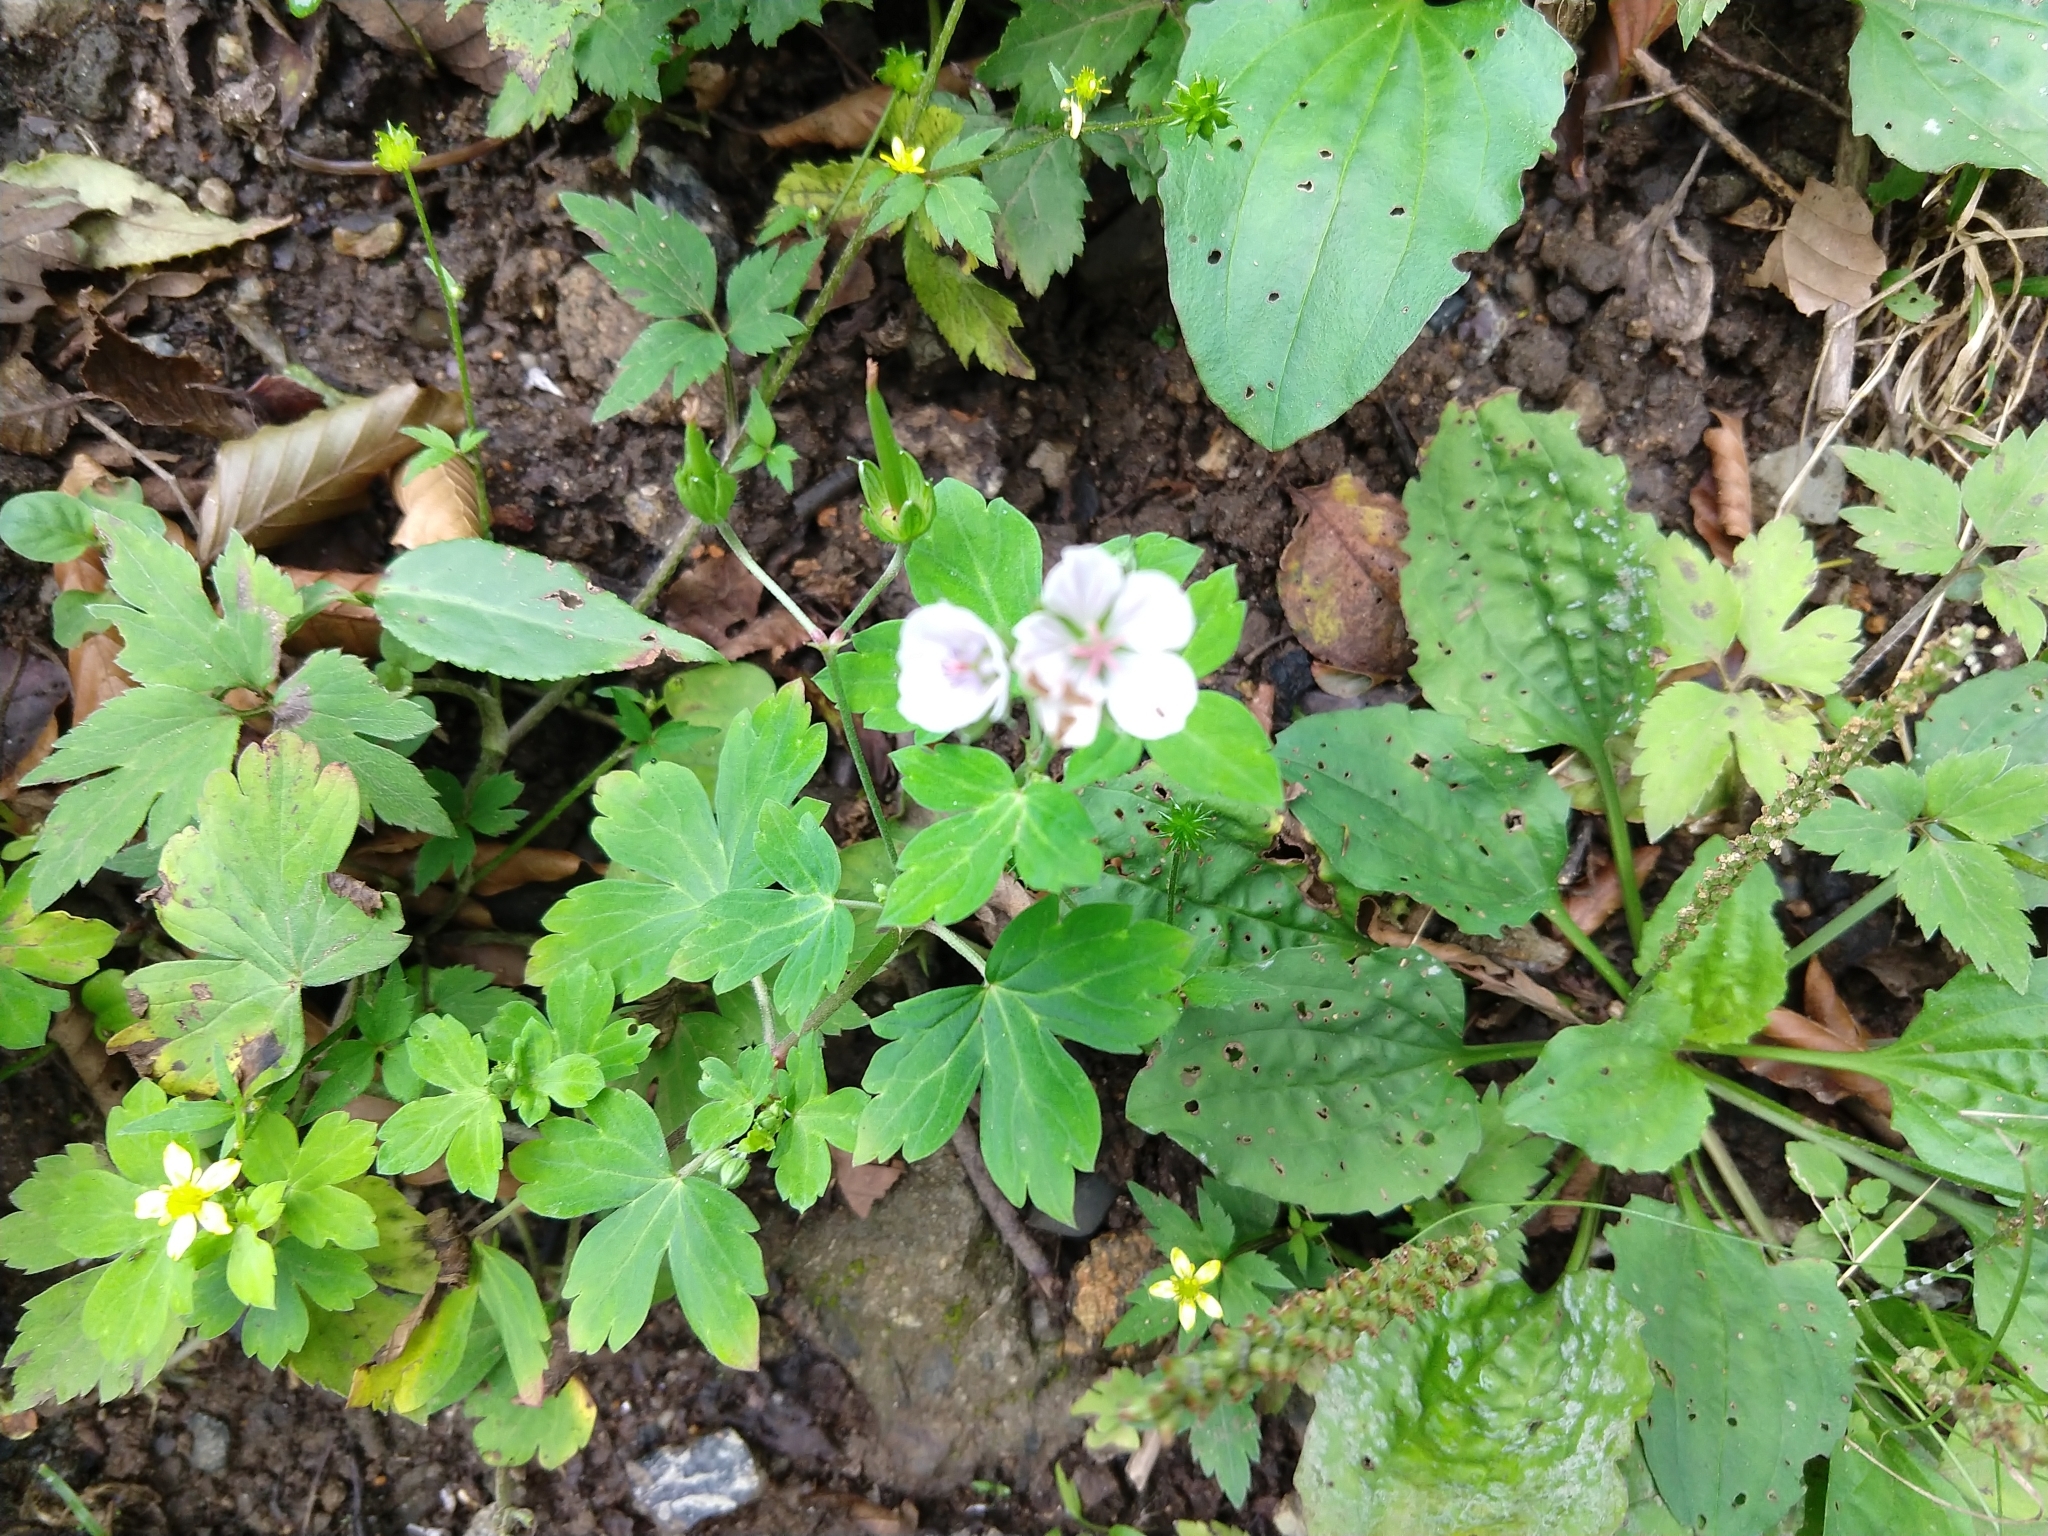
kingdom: Plantae
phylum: Tracheophyta
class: Magnoliopsida
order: Geraniales
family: Geraniaceae
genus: Geranium
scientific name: Geranium thunbergii
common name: Dewdrop crane's-bill
